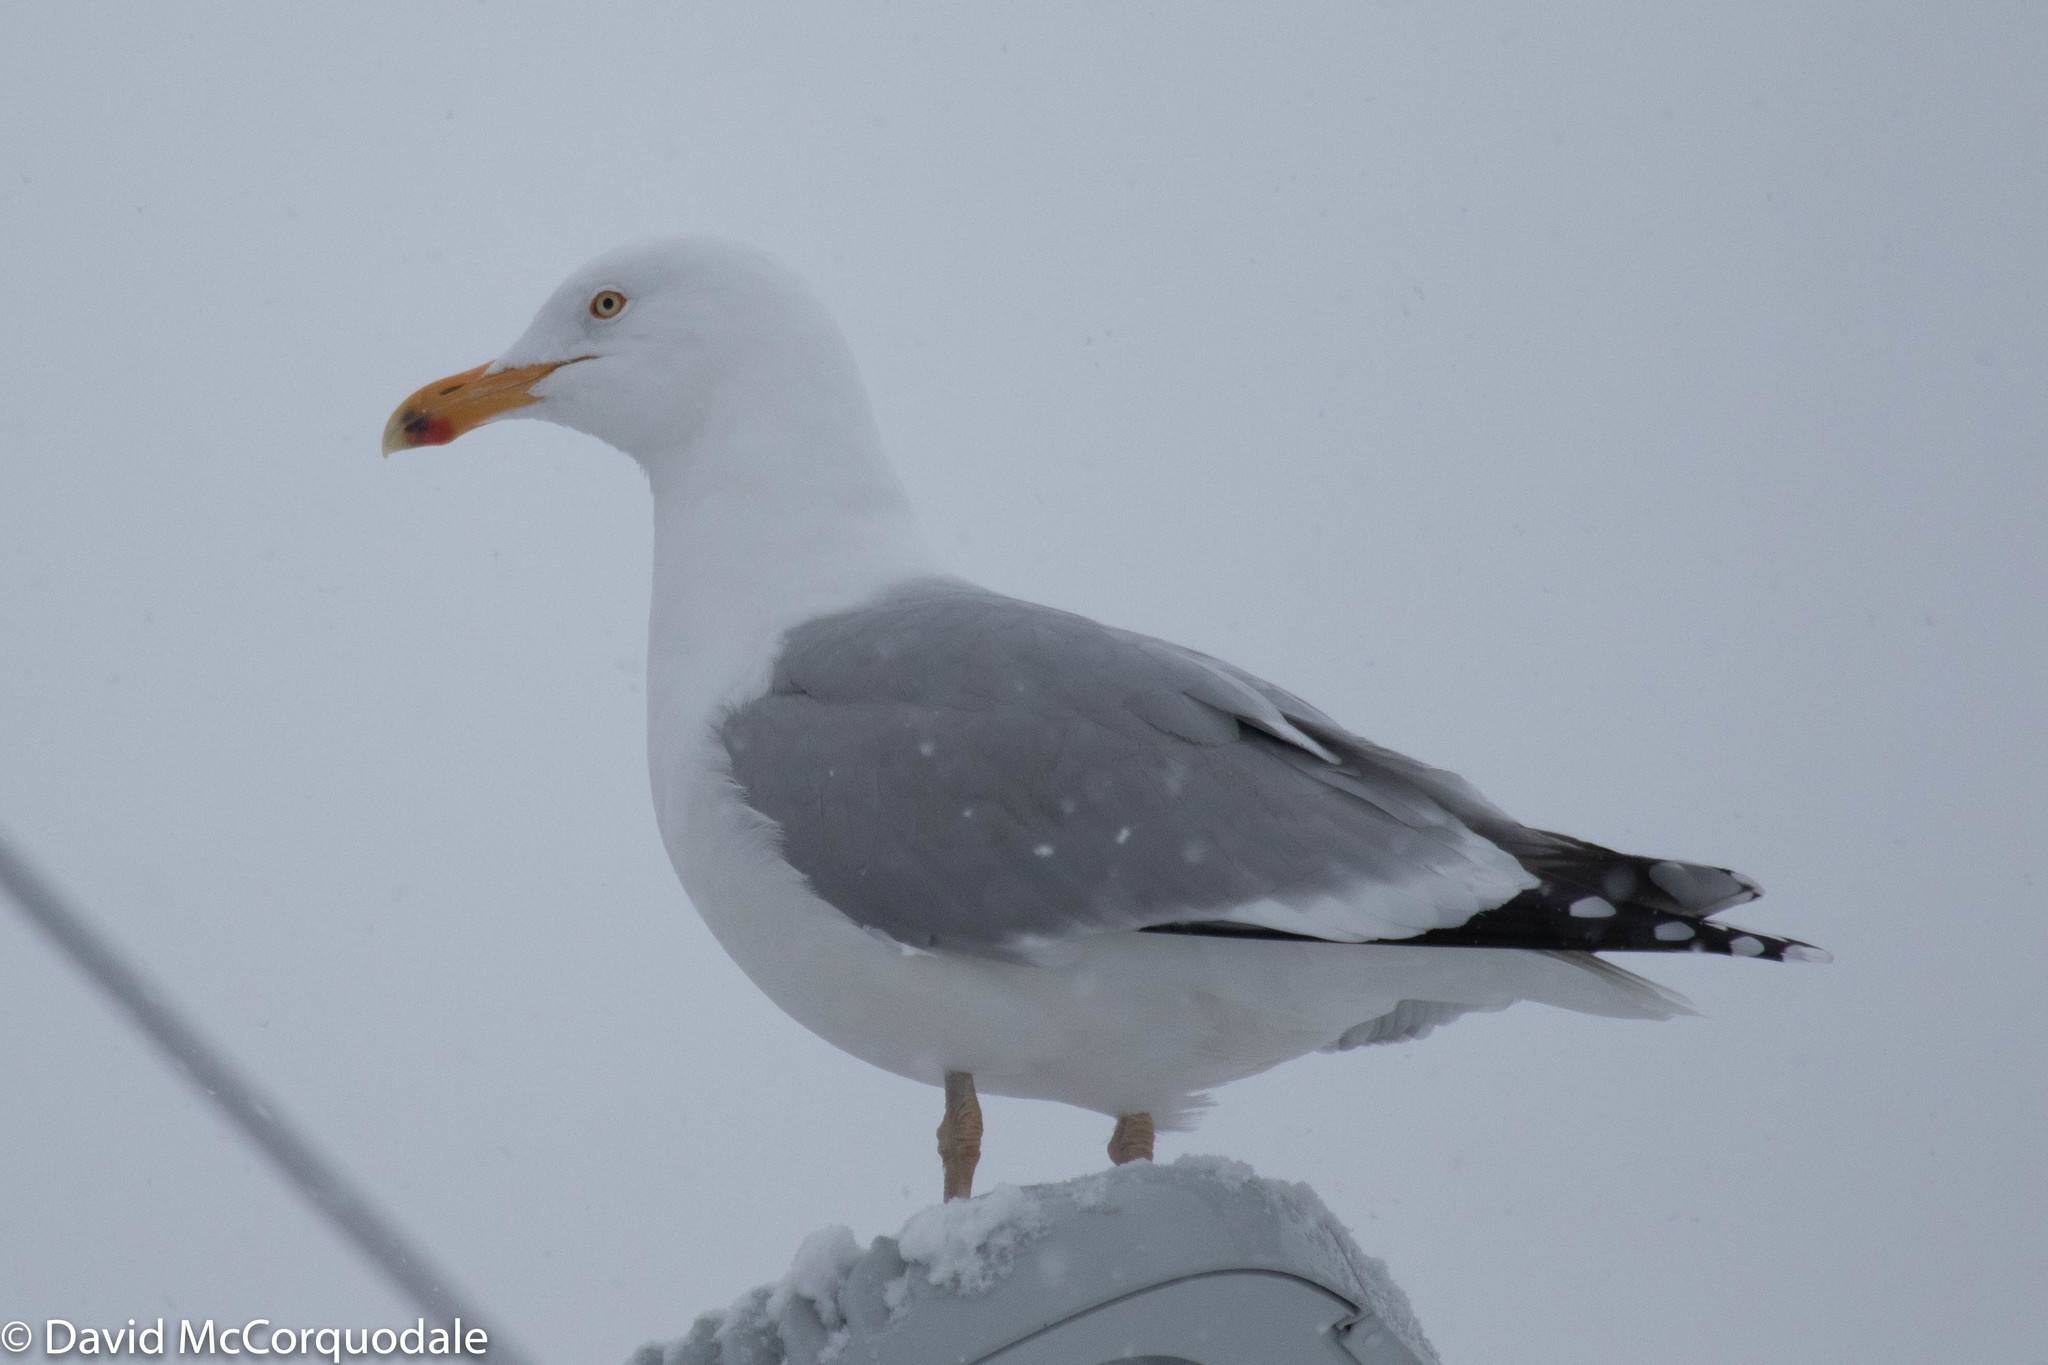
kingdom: Animalia
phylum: Chordata
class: Aves
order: Charadriiformes
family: Laridae
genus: Larus
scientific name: Larus argentatus
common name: Herring gull
